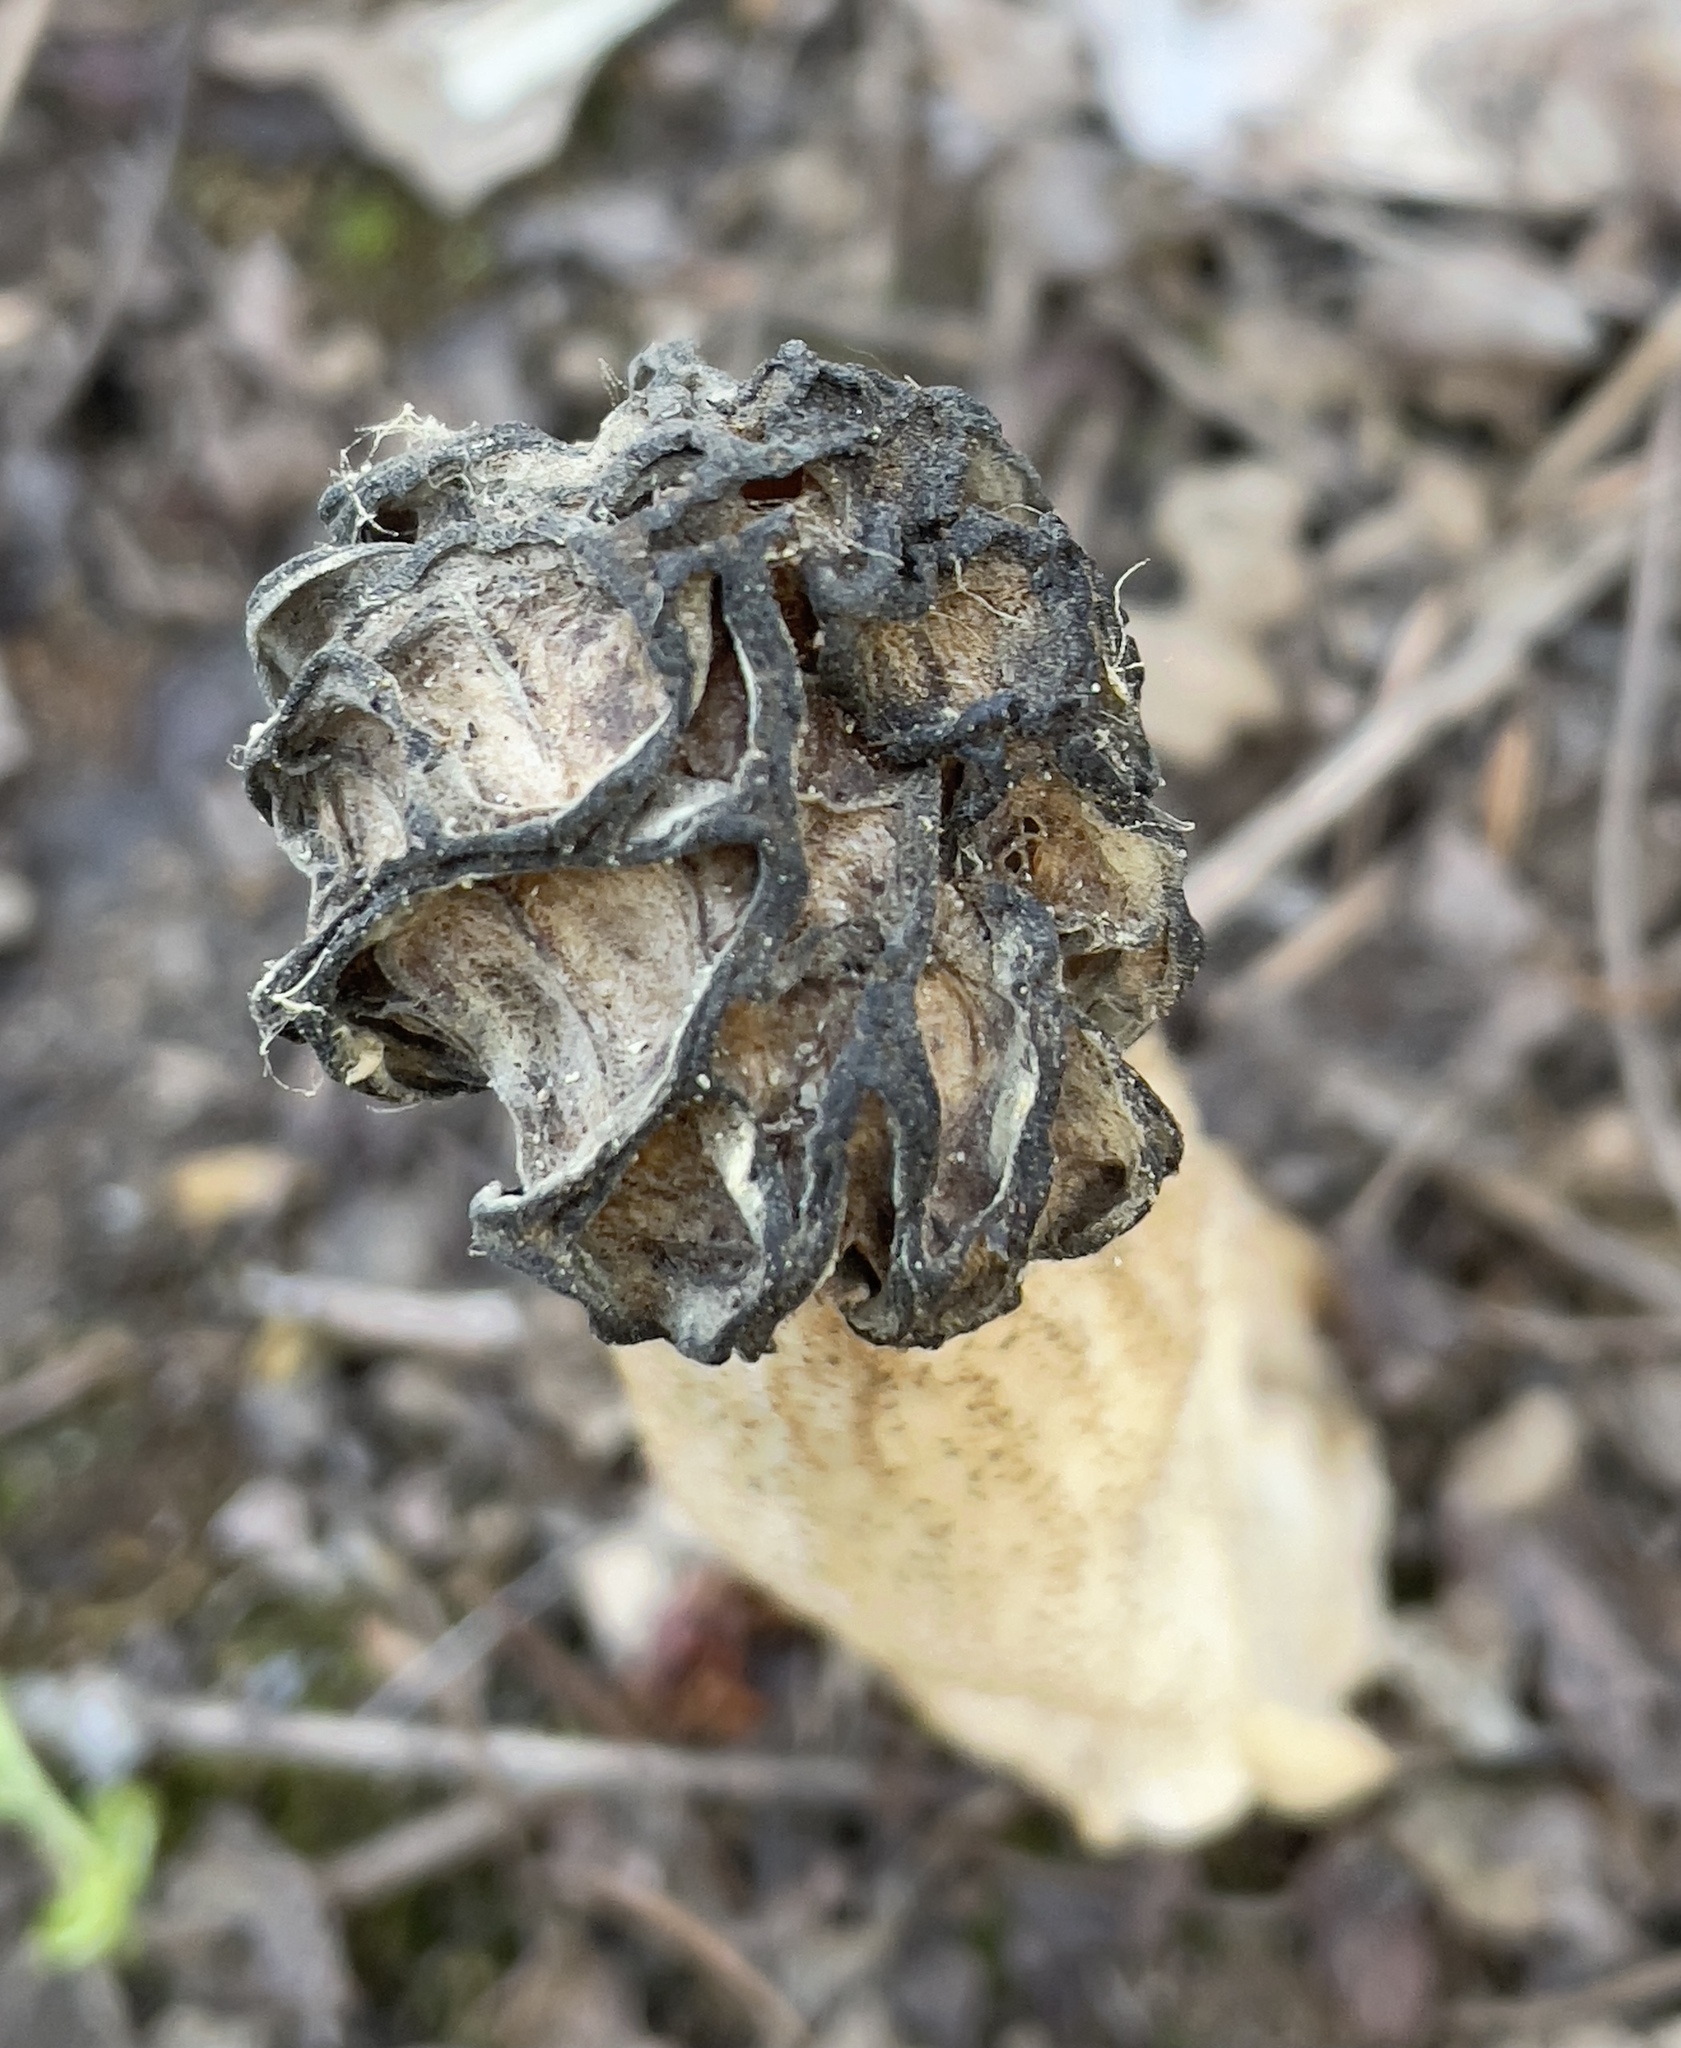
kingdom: Fungi
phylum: Ascomycota
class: Pezizomycetes
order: Pezizales
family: Morchellaceae
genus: Morchella
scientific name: Morchella populiphila
